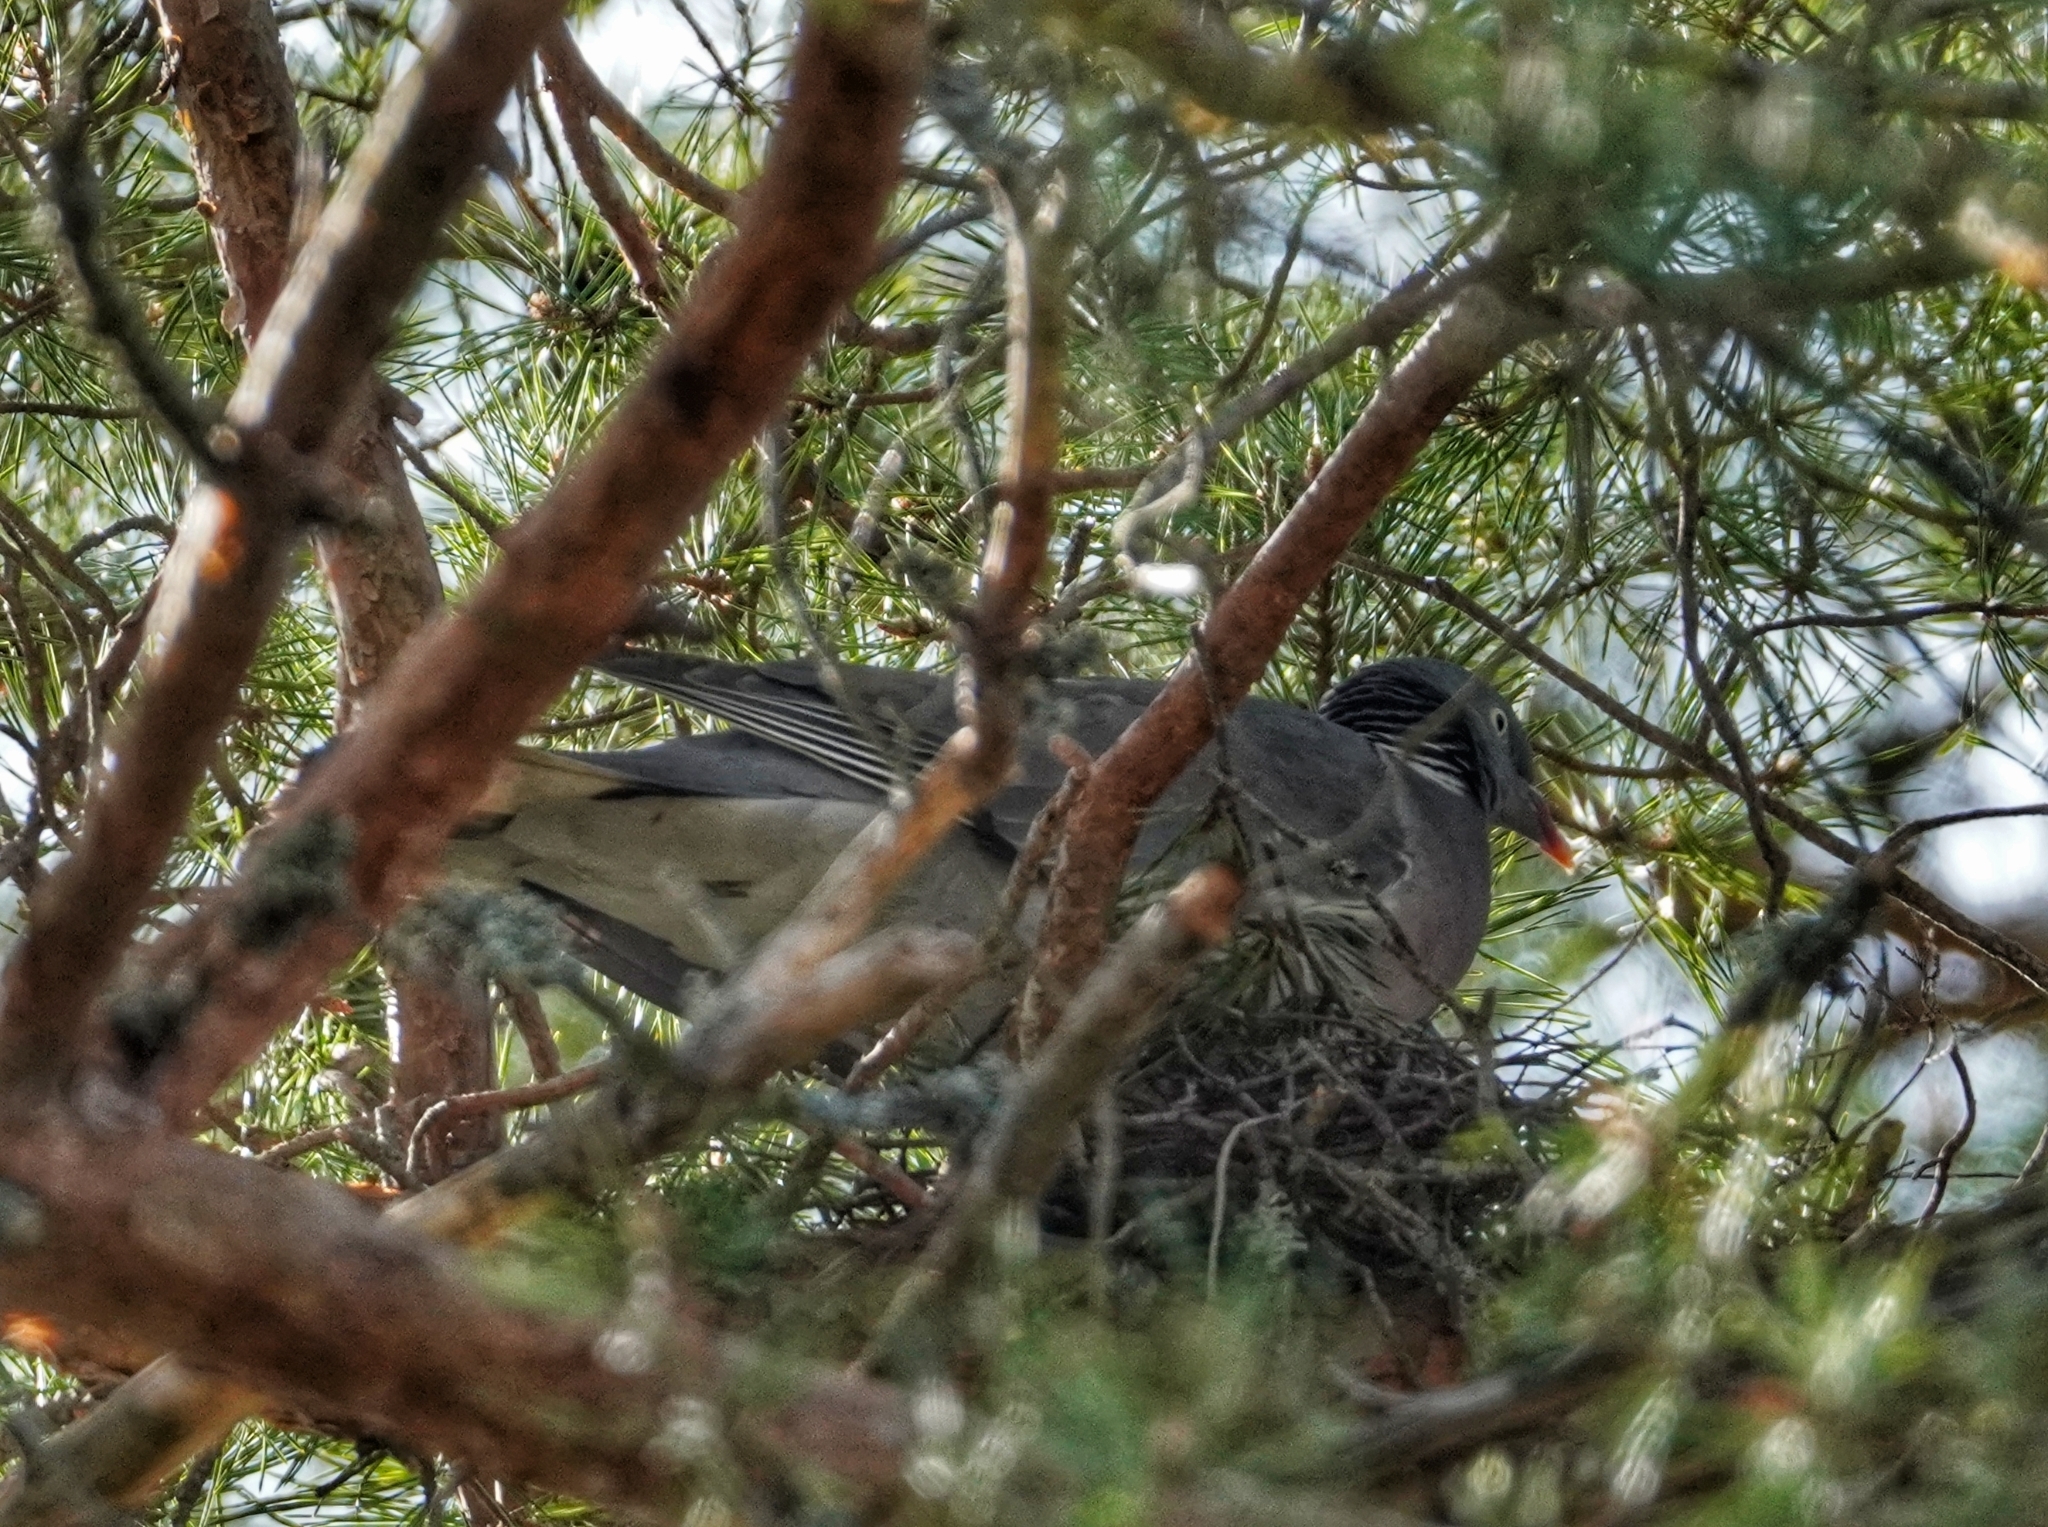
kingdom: Animalia
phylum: Chordata
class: Aves
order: Columbiformes
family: Columbidae
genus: Columba
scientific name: Columba palumbus
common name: Common wood pigeon
